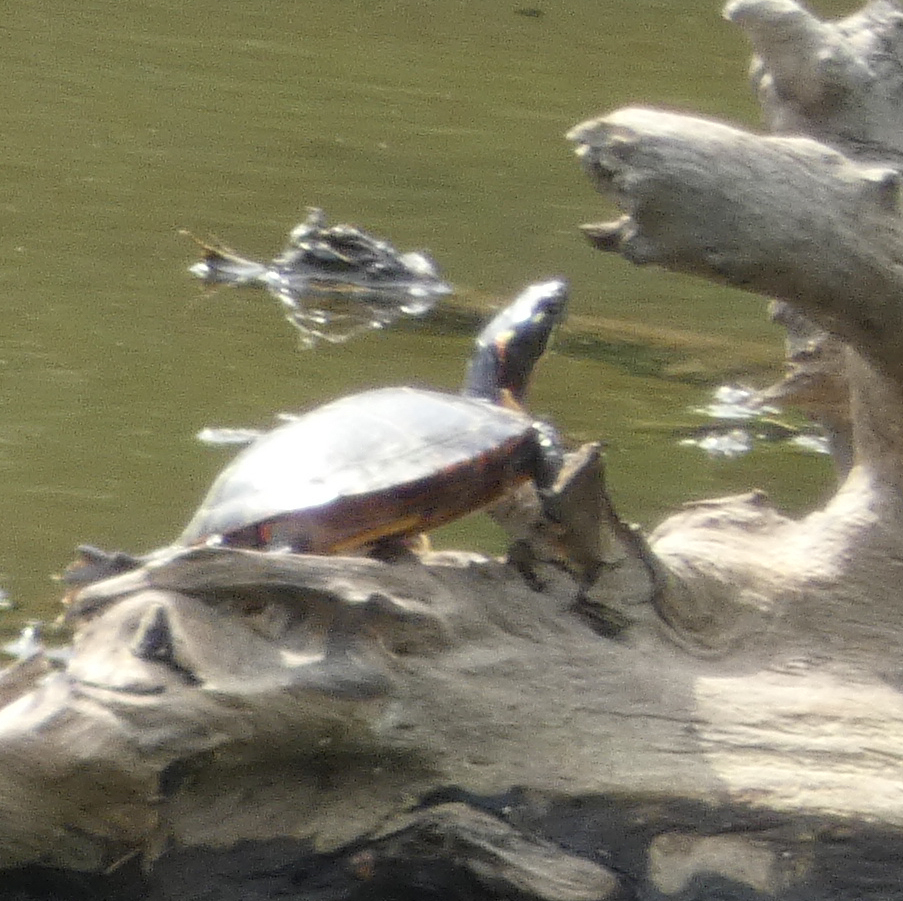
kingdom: Animalia
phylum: Chordata
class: Testudines
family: Emydidae
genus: Chrysemys
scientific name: Chrysemys picta
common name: Painted turtle
